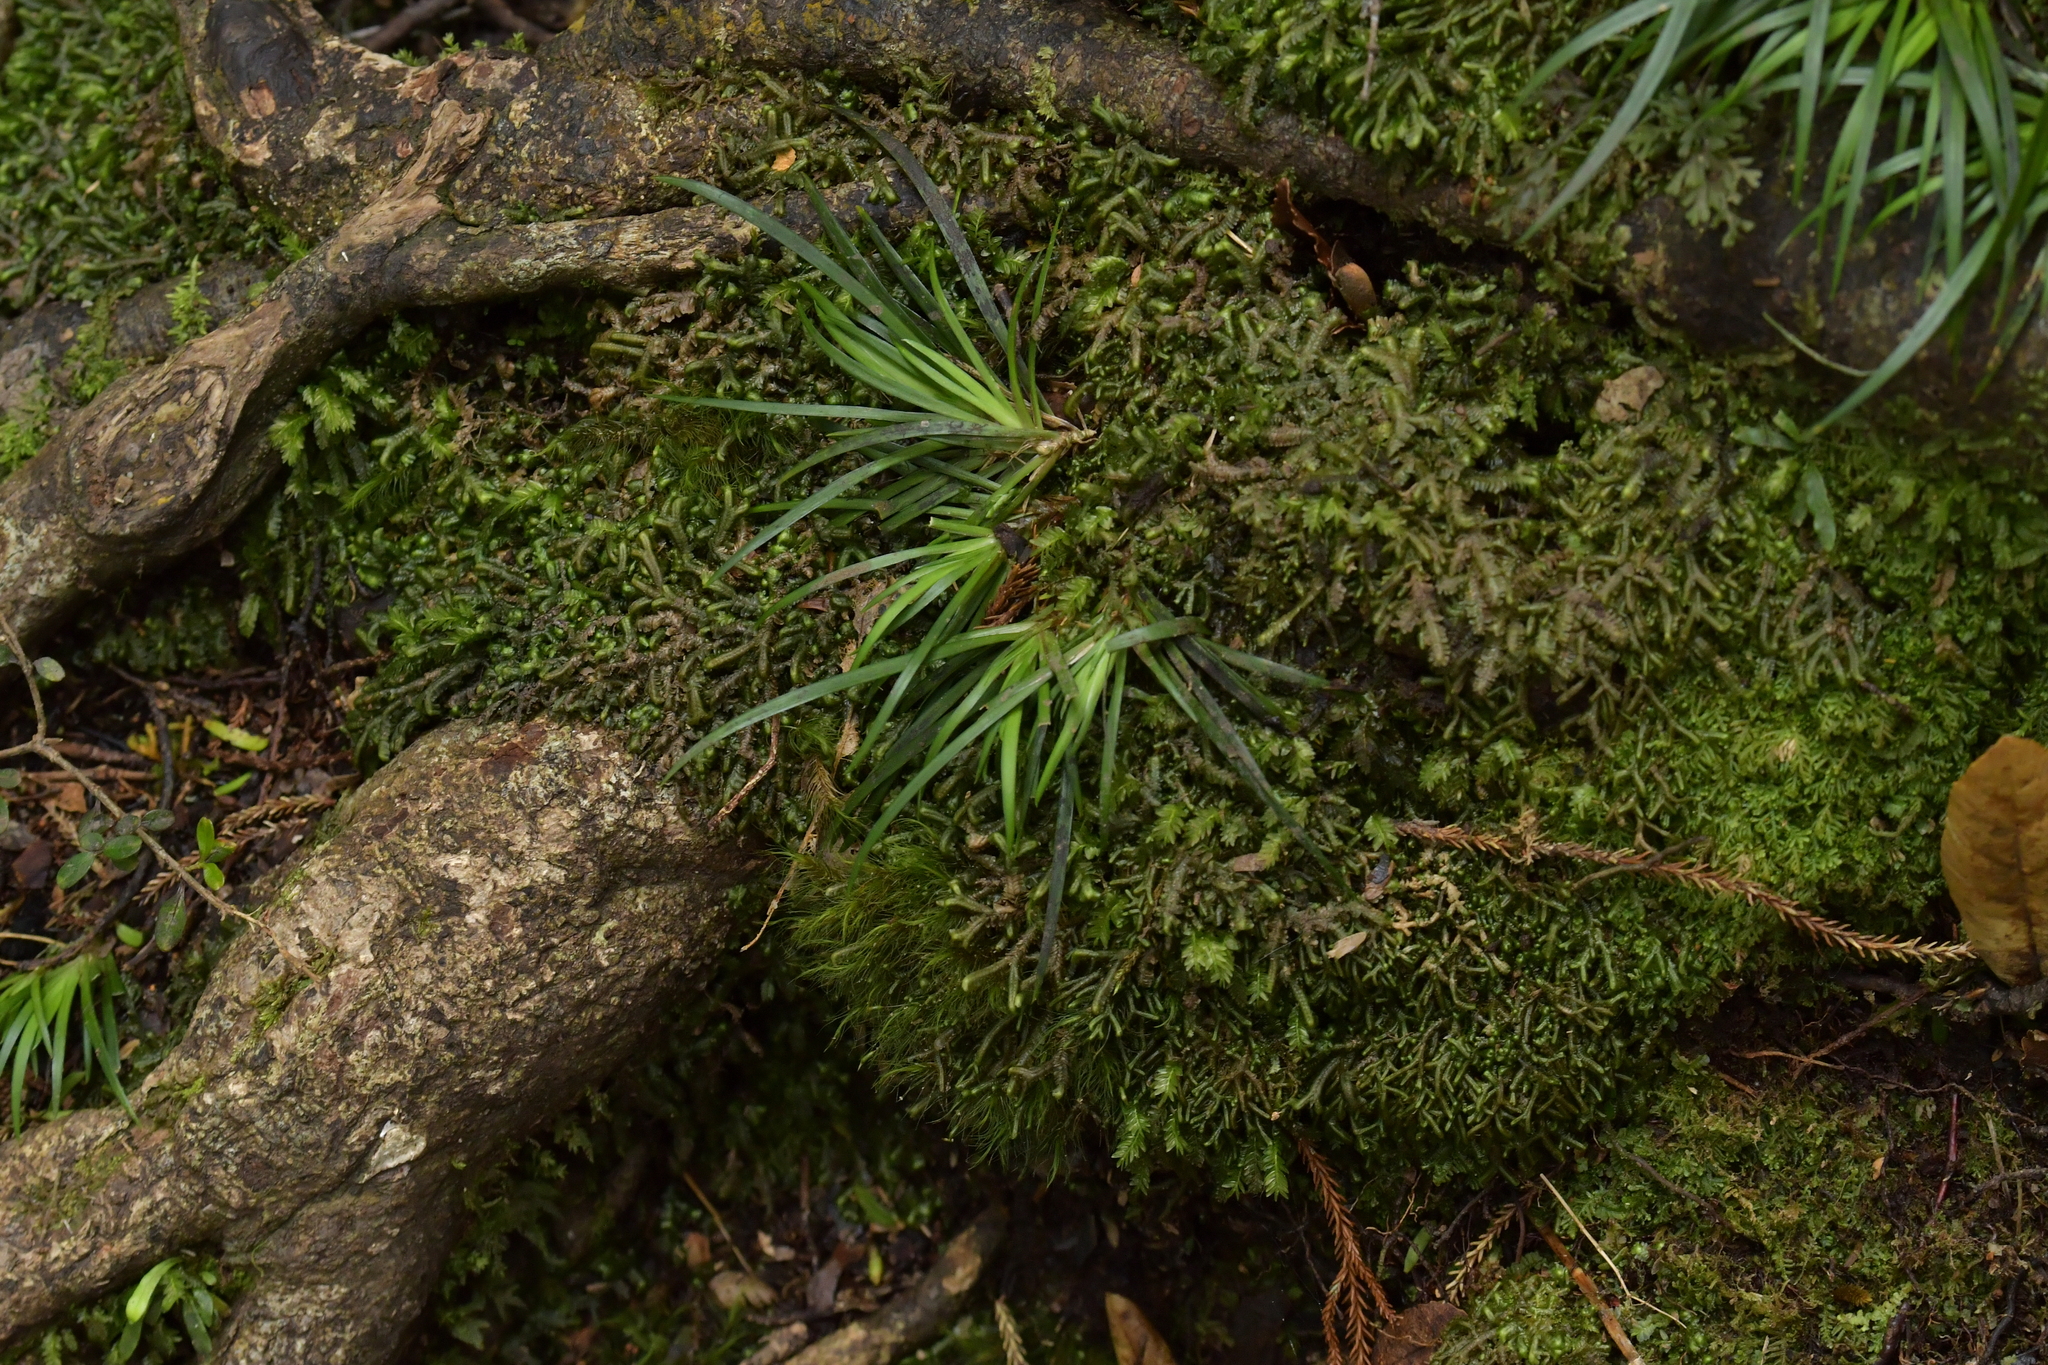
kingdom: Plantae
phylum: Tracheophyta
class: Liliopsida
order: Asparagales
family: Iridaceae
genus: Libertia
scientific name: Libertia micrantha
